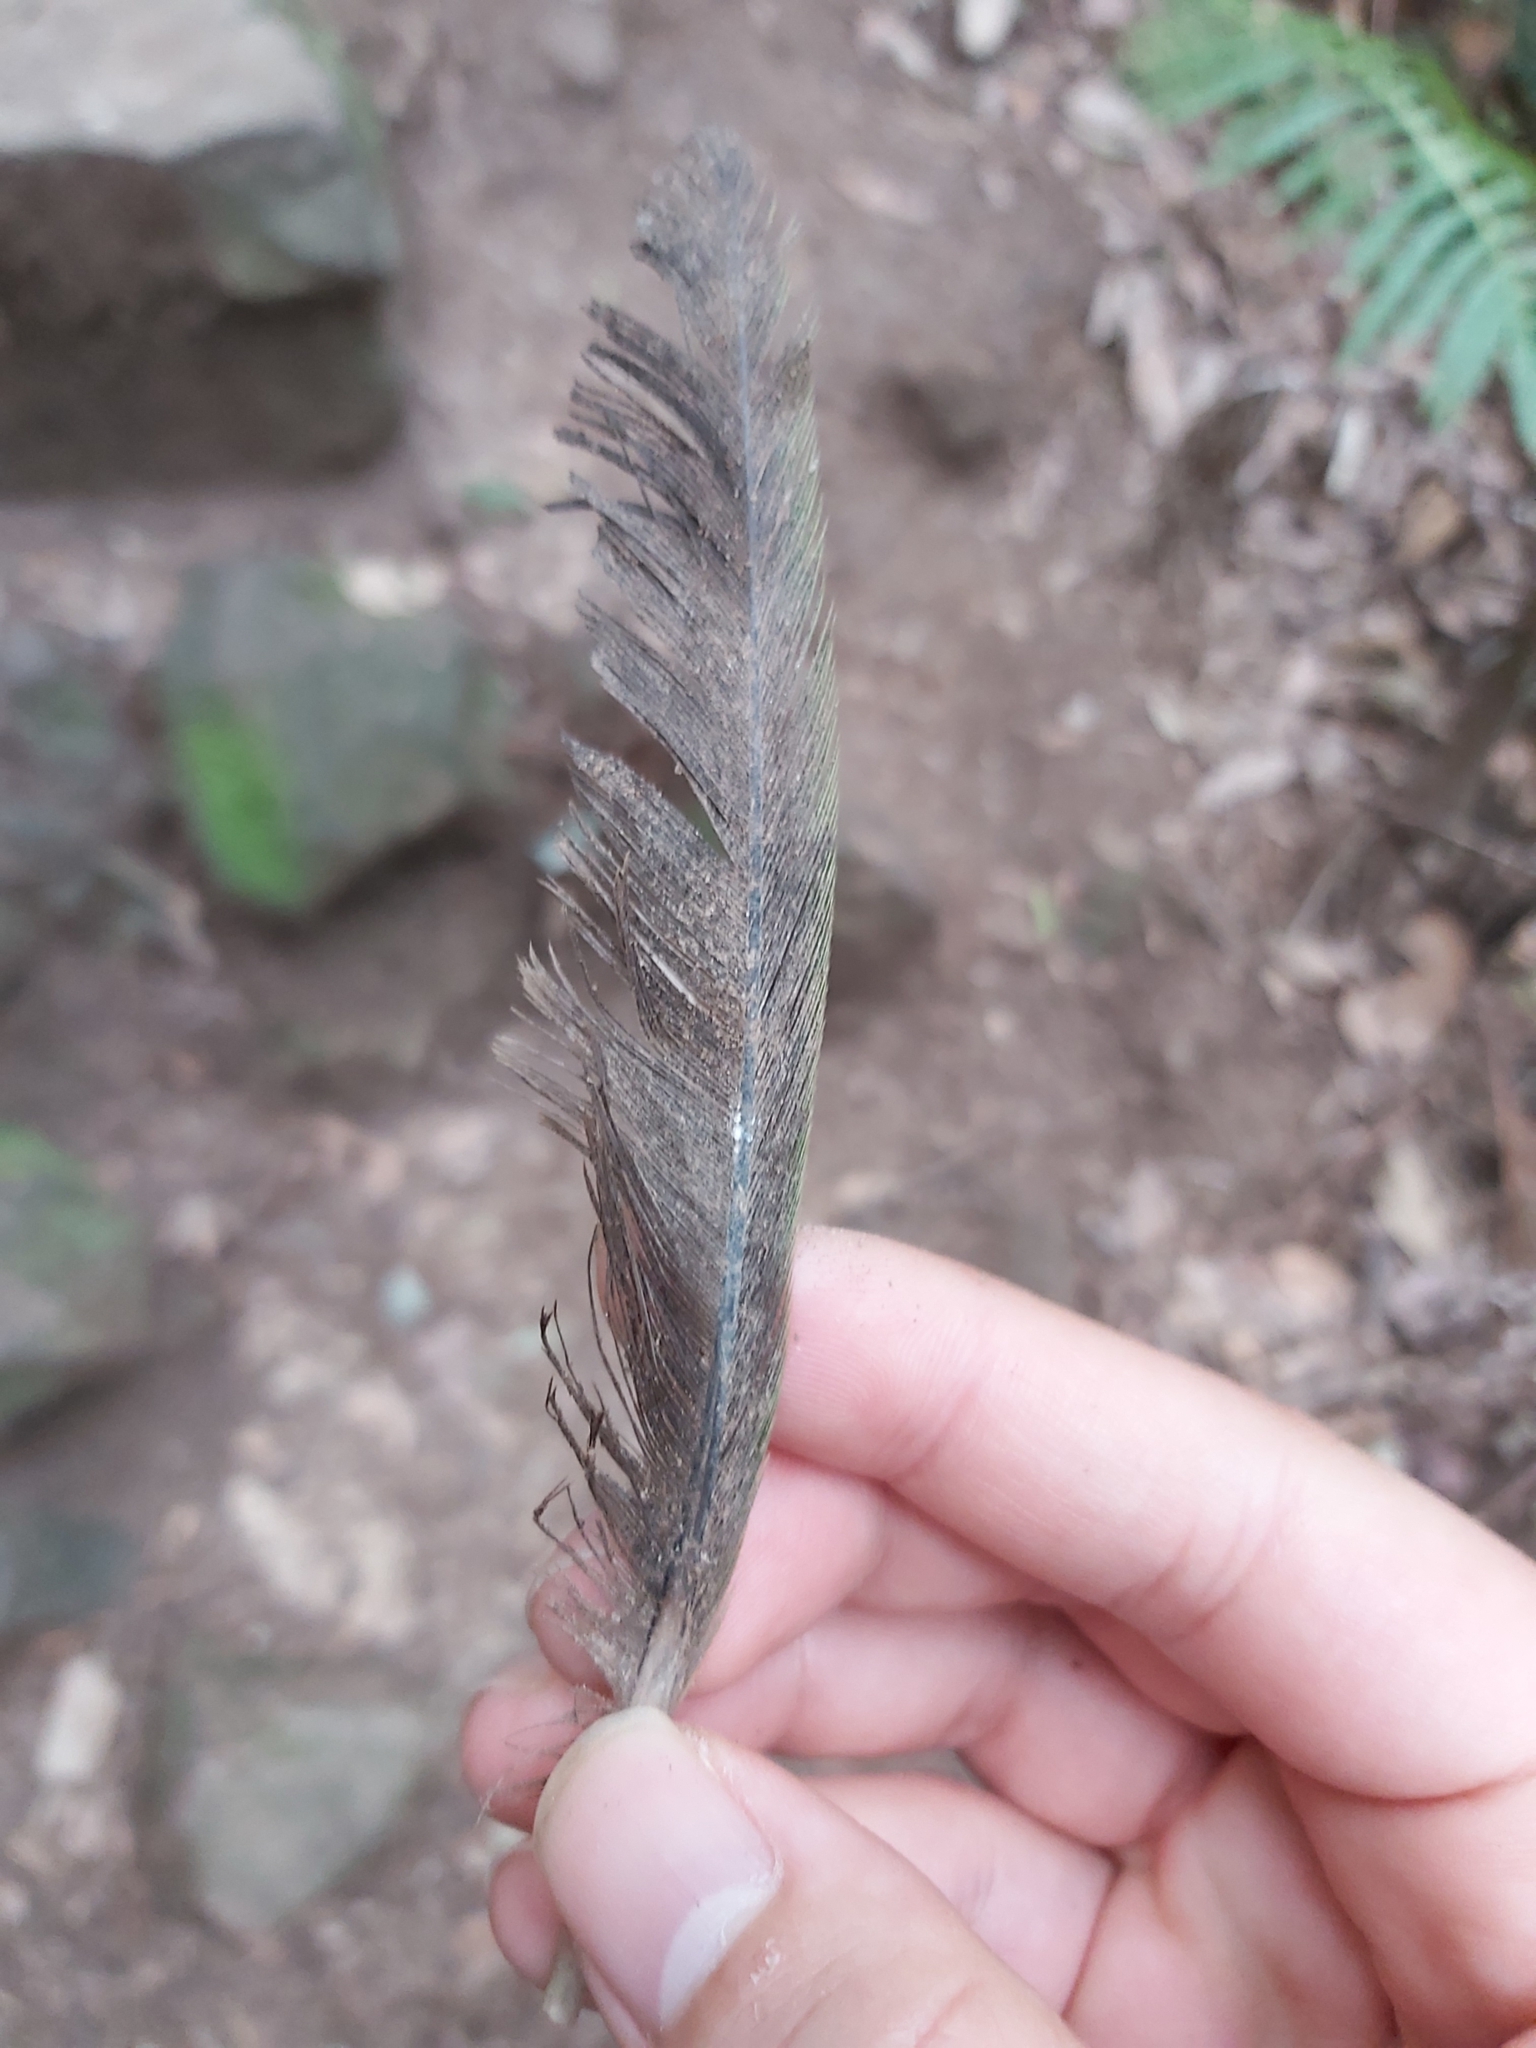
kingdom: Animalia
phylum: Chordata
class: Aves
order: Psittaciformes
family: Psittacidae
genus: Alisterus
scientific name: Alisterus scapularis
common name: Australian king parrot
